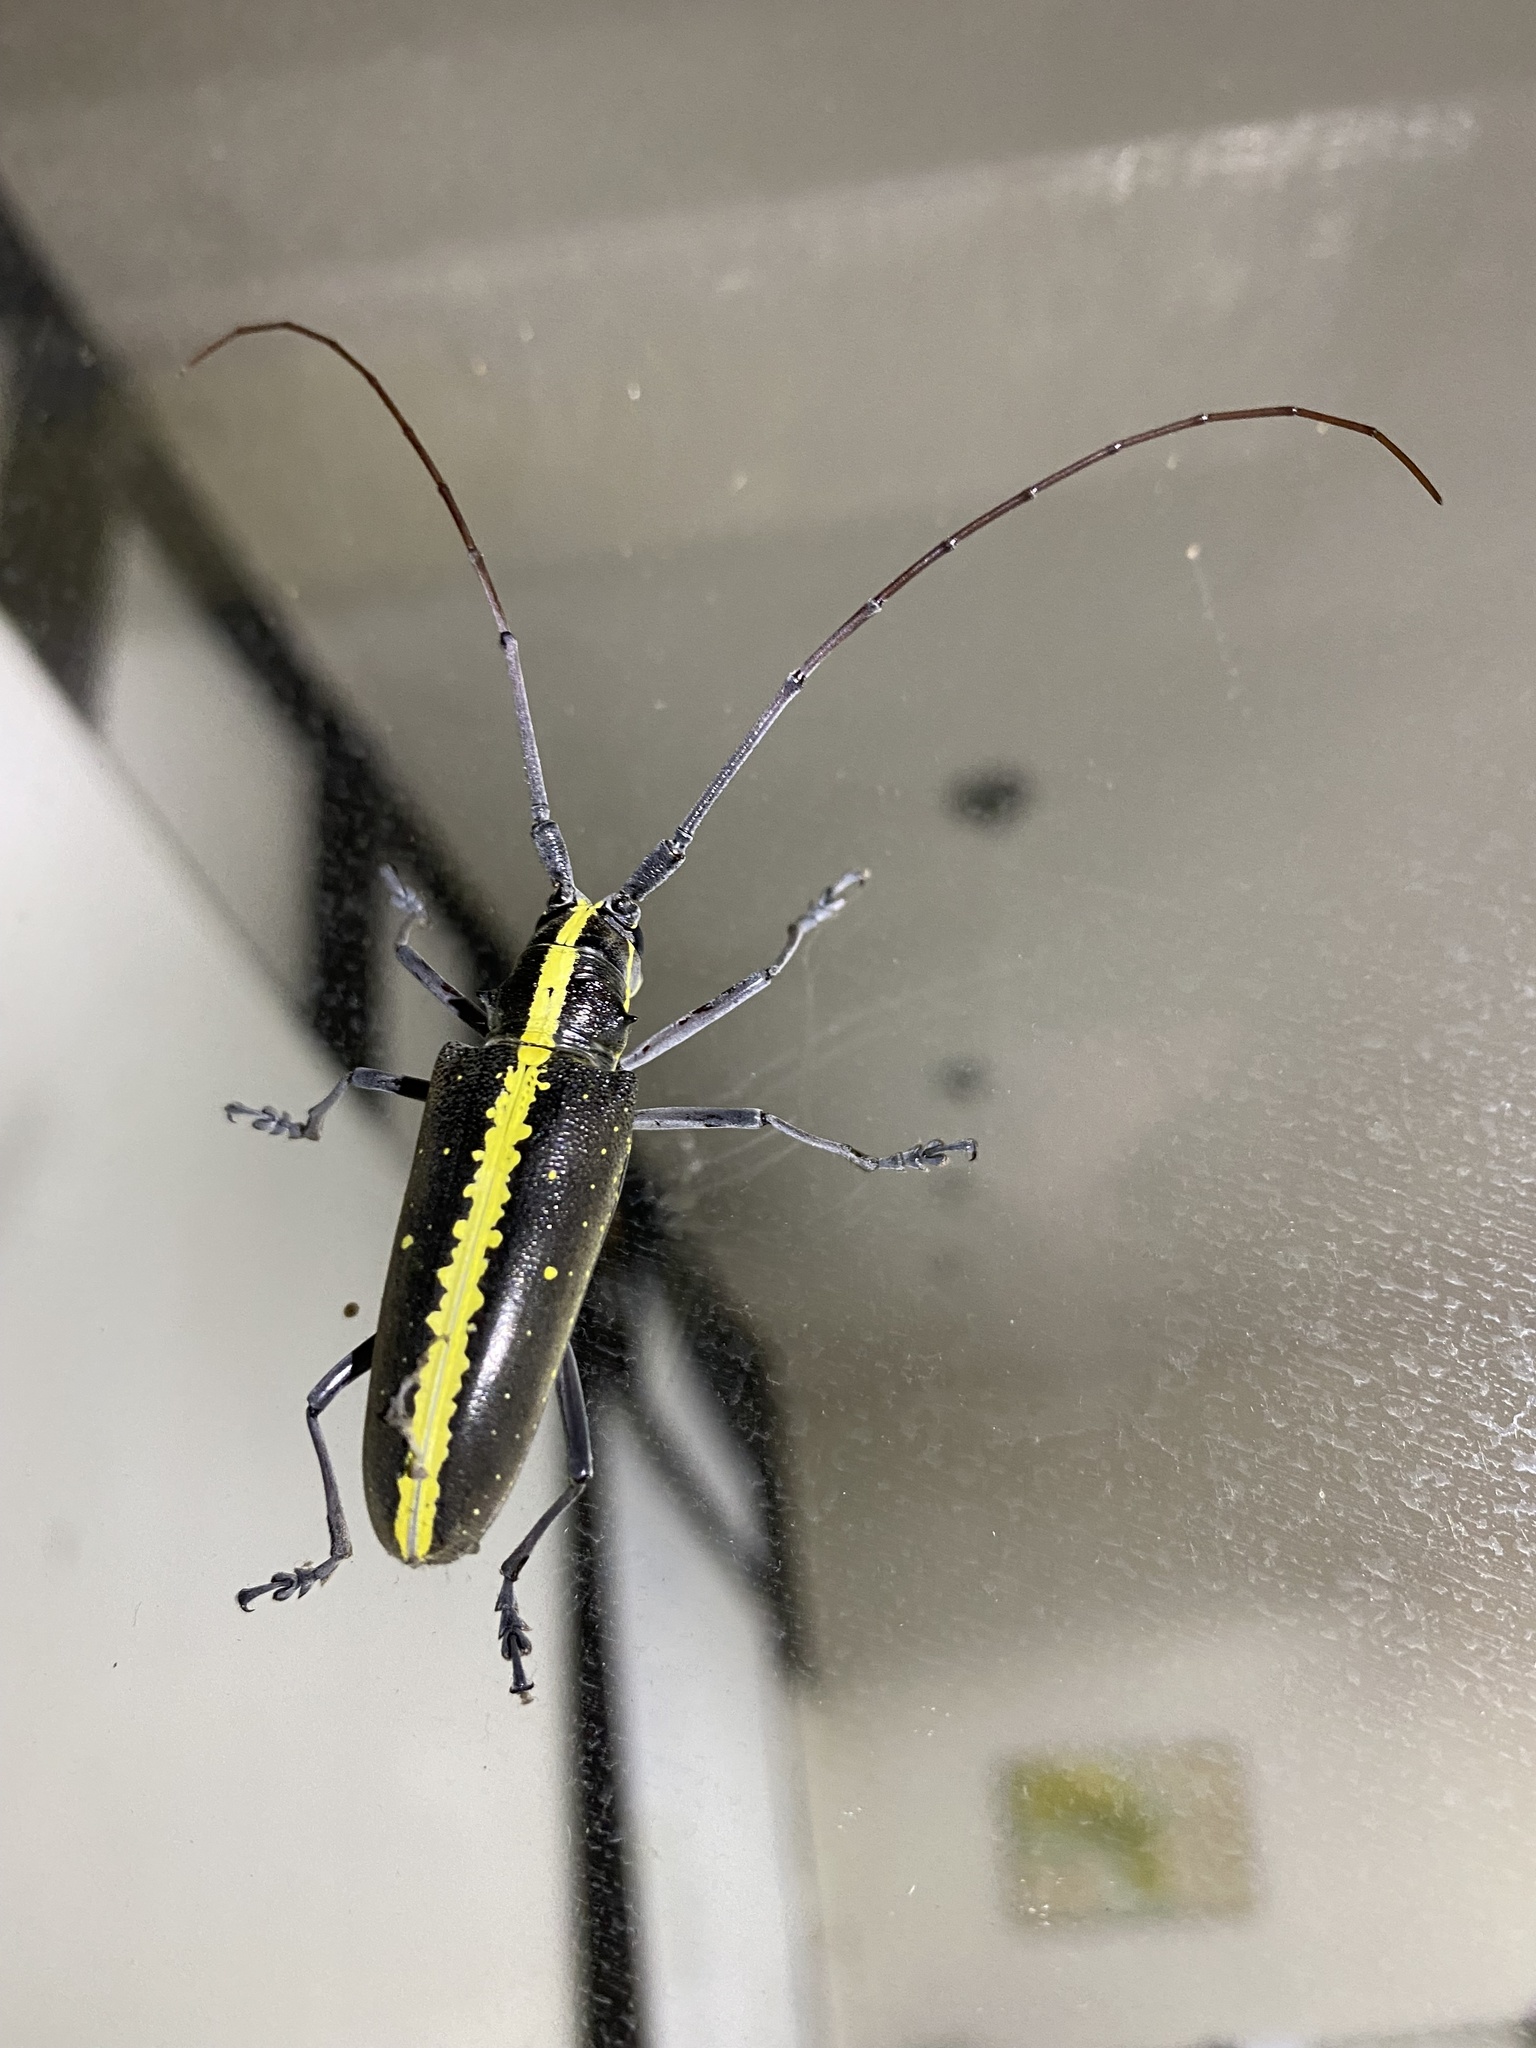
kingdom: Animalia
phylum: Arthropoda
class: Insecta
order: Coleoptera
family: Cerambycidae
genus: Taeniotes
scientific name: Taeniotes scalatus
